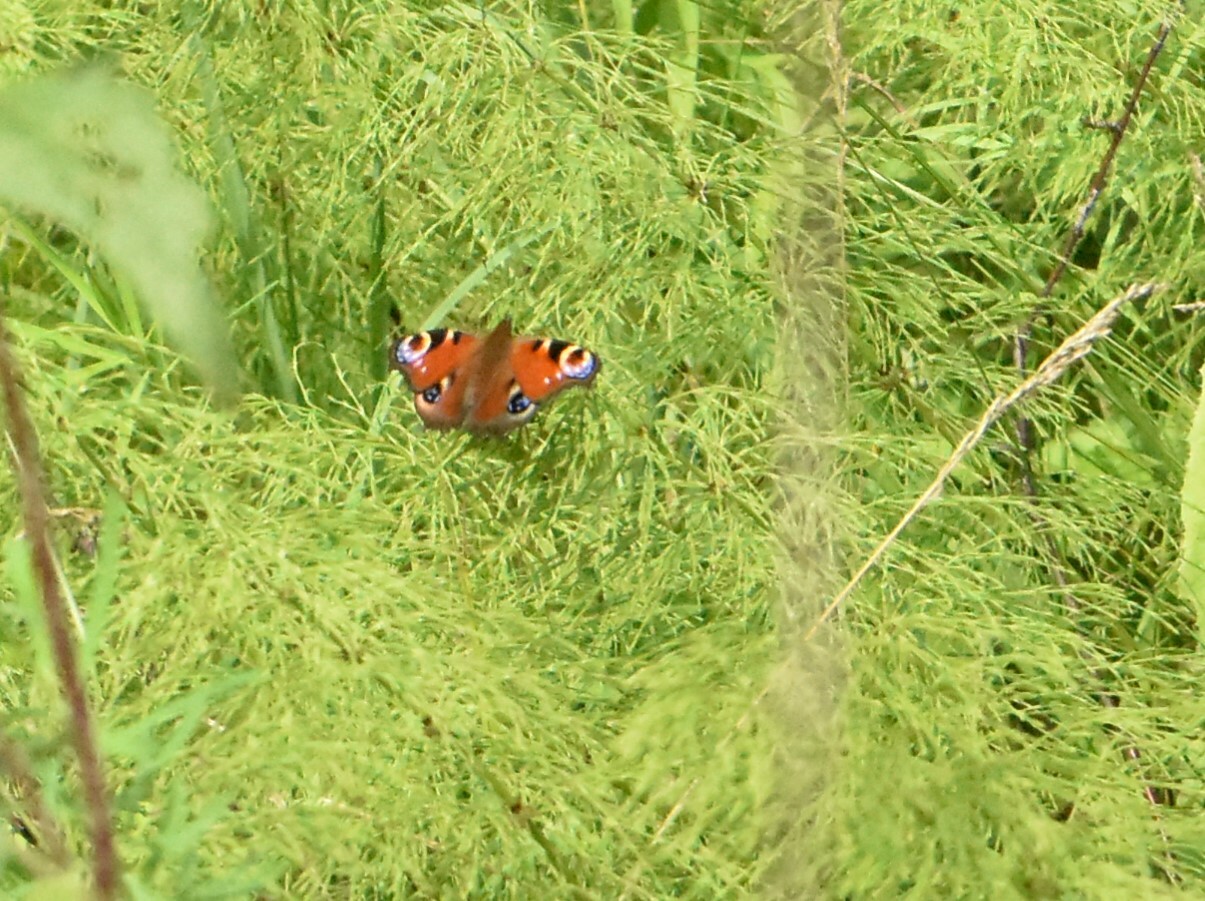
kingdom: Animalia
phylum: Arthropoda
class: Insecta
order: Lepidoptera
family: Nymphalidae
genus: Aglais
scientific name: Aglais io
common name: Peacock
